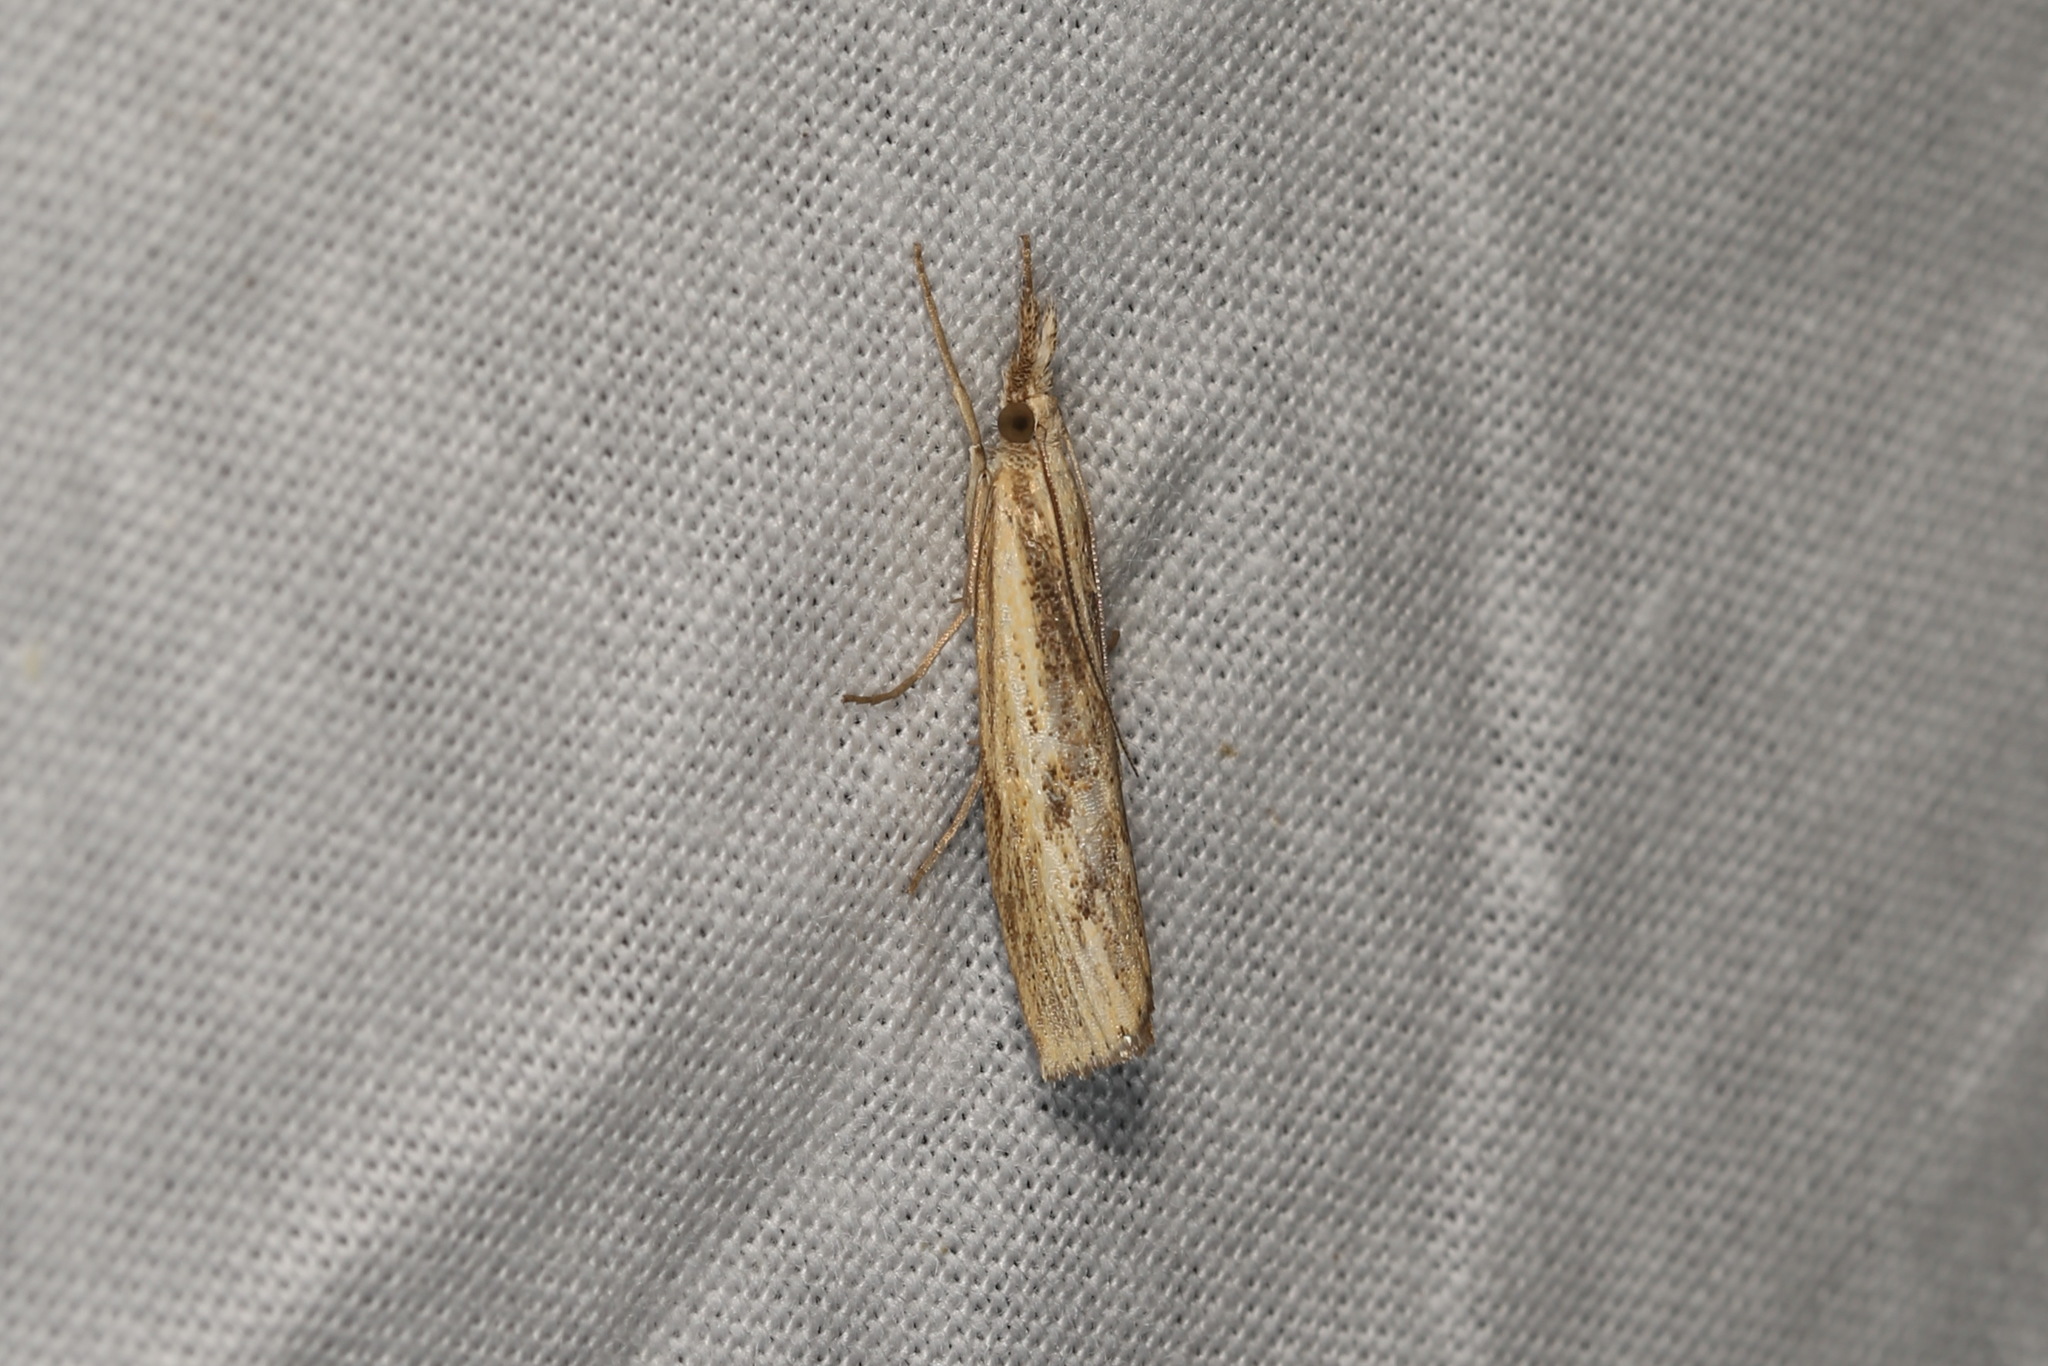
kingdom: Animalia
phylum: Arthropoda
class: Insecta
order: Lepidoptera
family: Crambidae
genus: Agriphila
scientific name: Agriphila inquinatella
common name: Barred grass-veneer
